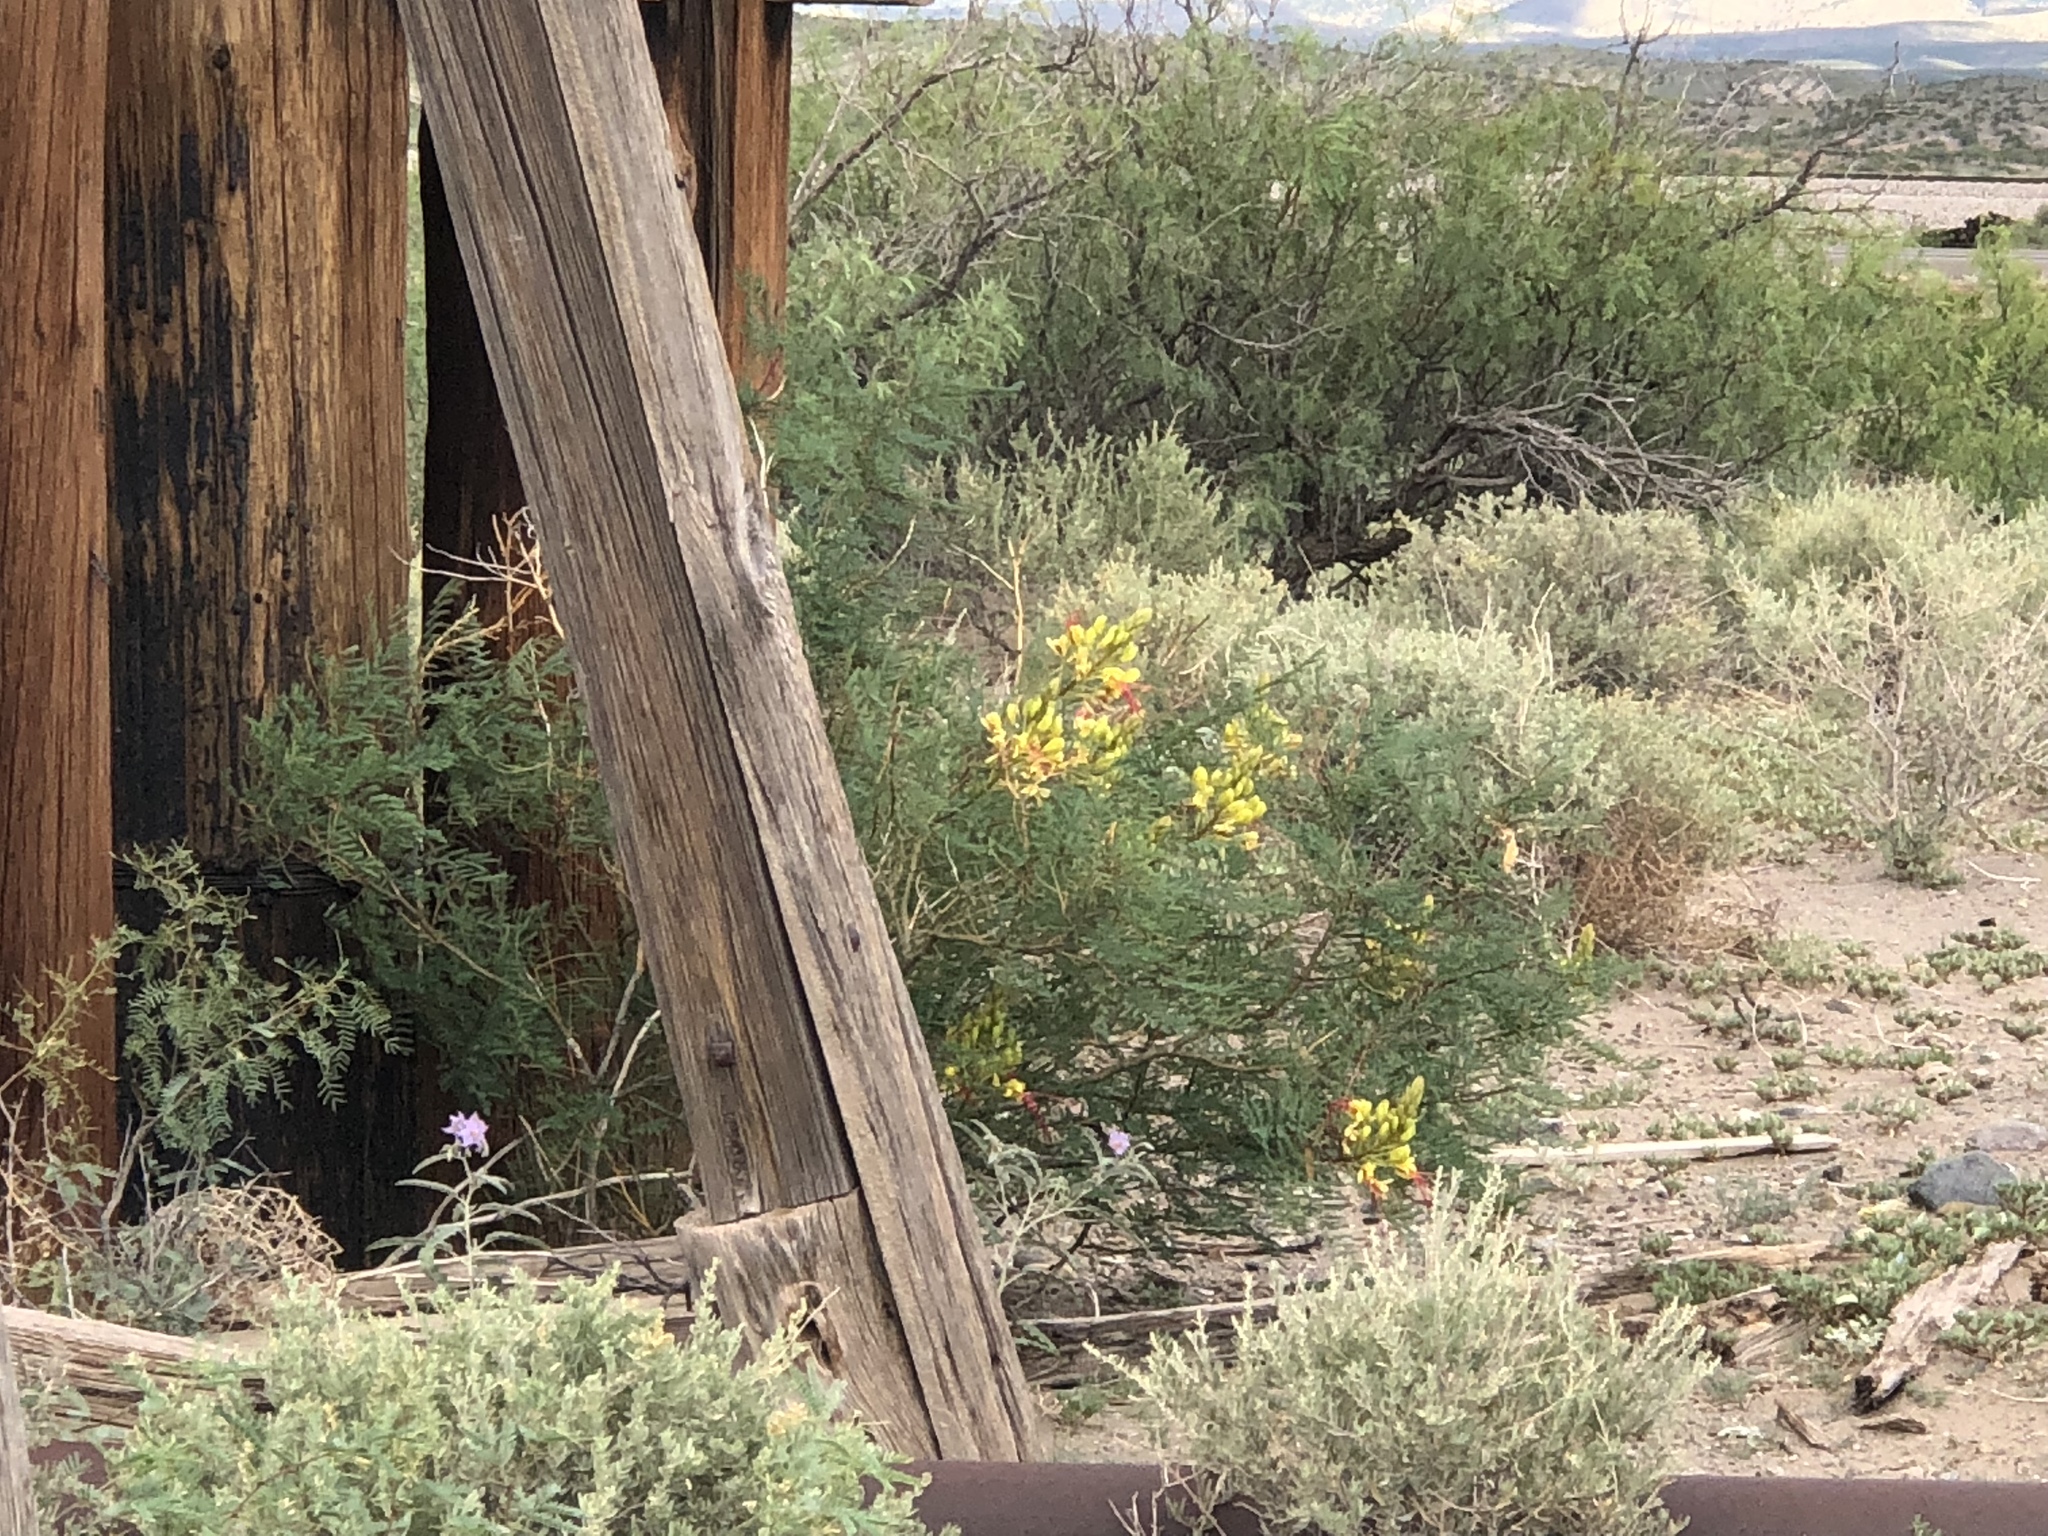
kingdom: Plantae
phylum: Tracheophyta
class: Magnoliopsida
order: Fabales
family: Fabaceae
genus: Erythrostemon
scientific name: Erythrostemon gilliesii
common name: Bird-of-paradise shrub
